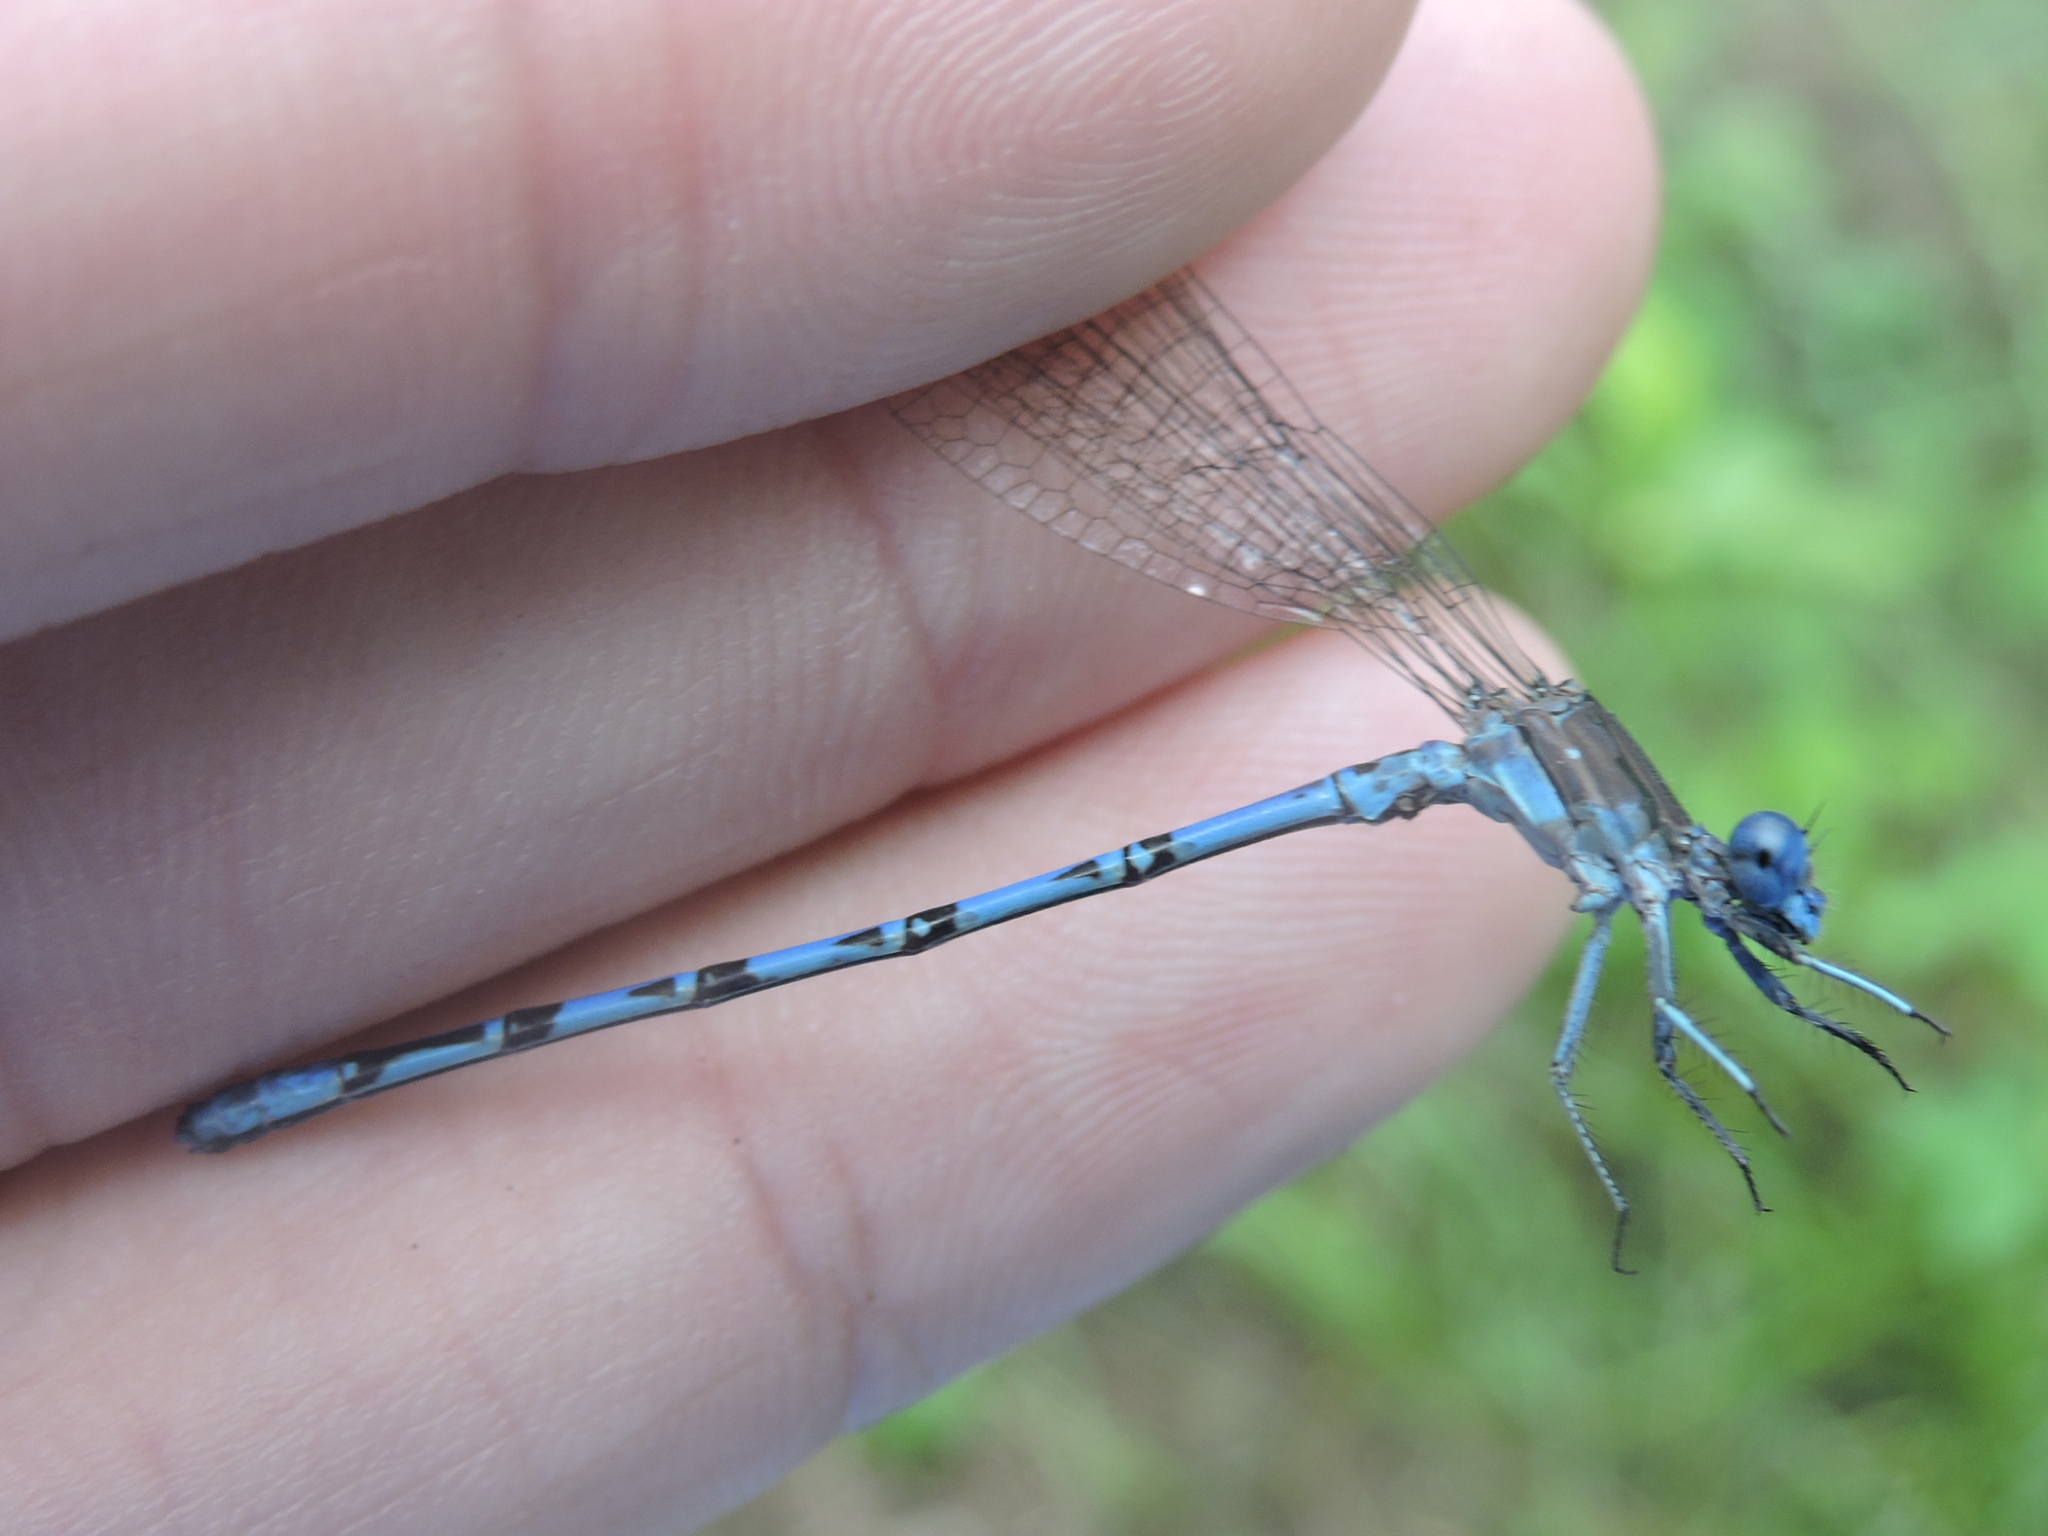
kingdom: Animalia
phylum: Arthropoda
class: Insecta
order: Odonata
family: Coenagrionidae
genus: Argia
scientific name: Argia funebris
